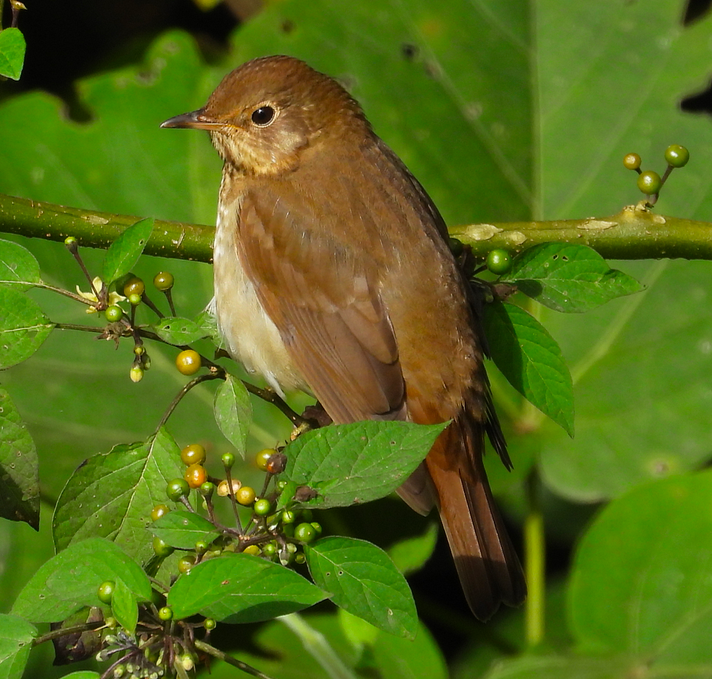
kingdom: Animalia
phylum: Chordata
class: Aves
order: Passeriformes
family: Turdidae
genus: Catharus
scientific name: Catharus fuscescens
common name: Veery
